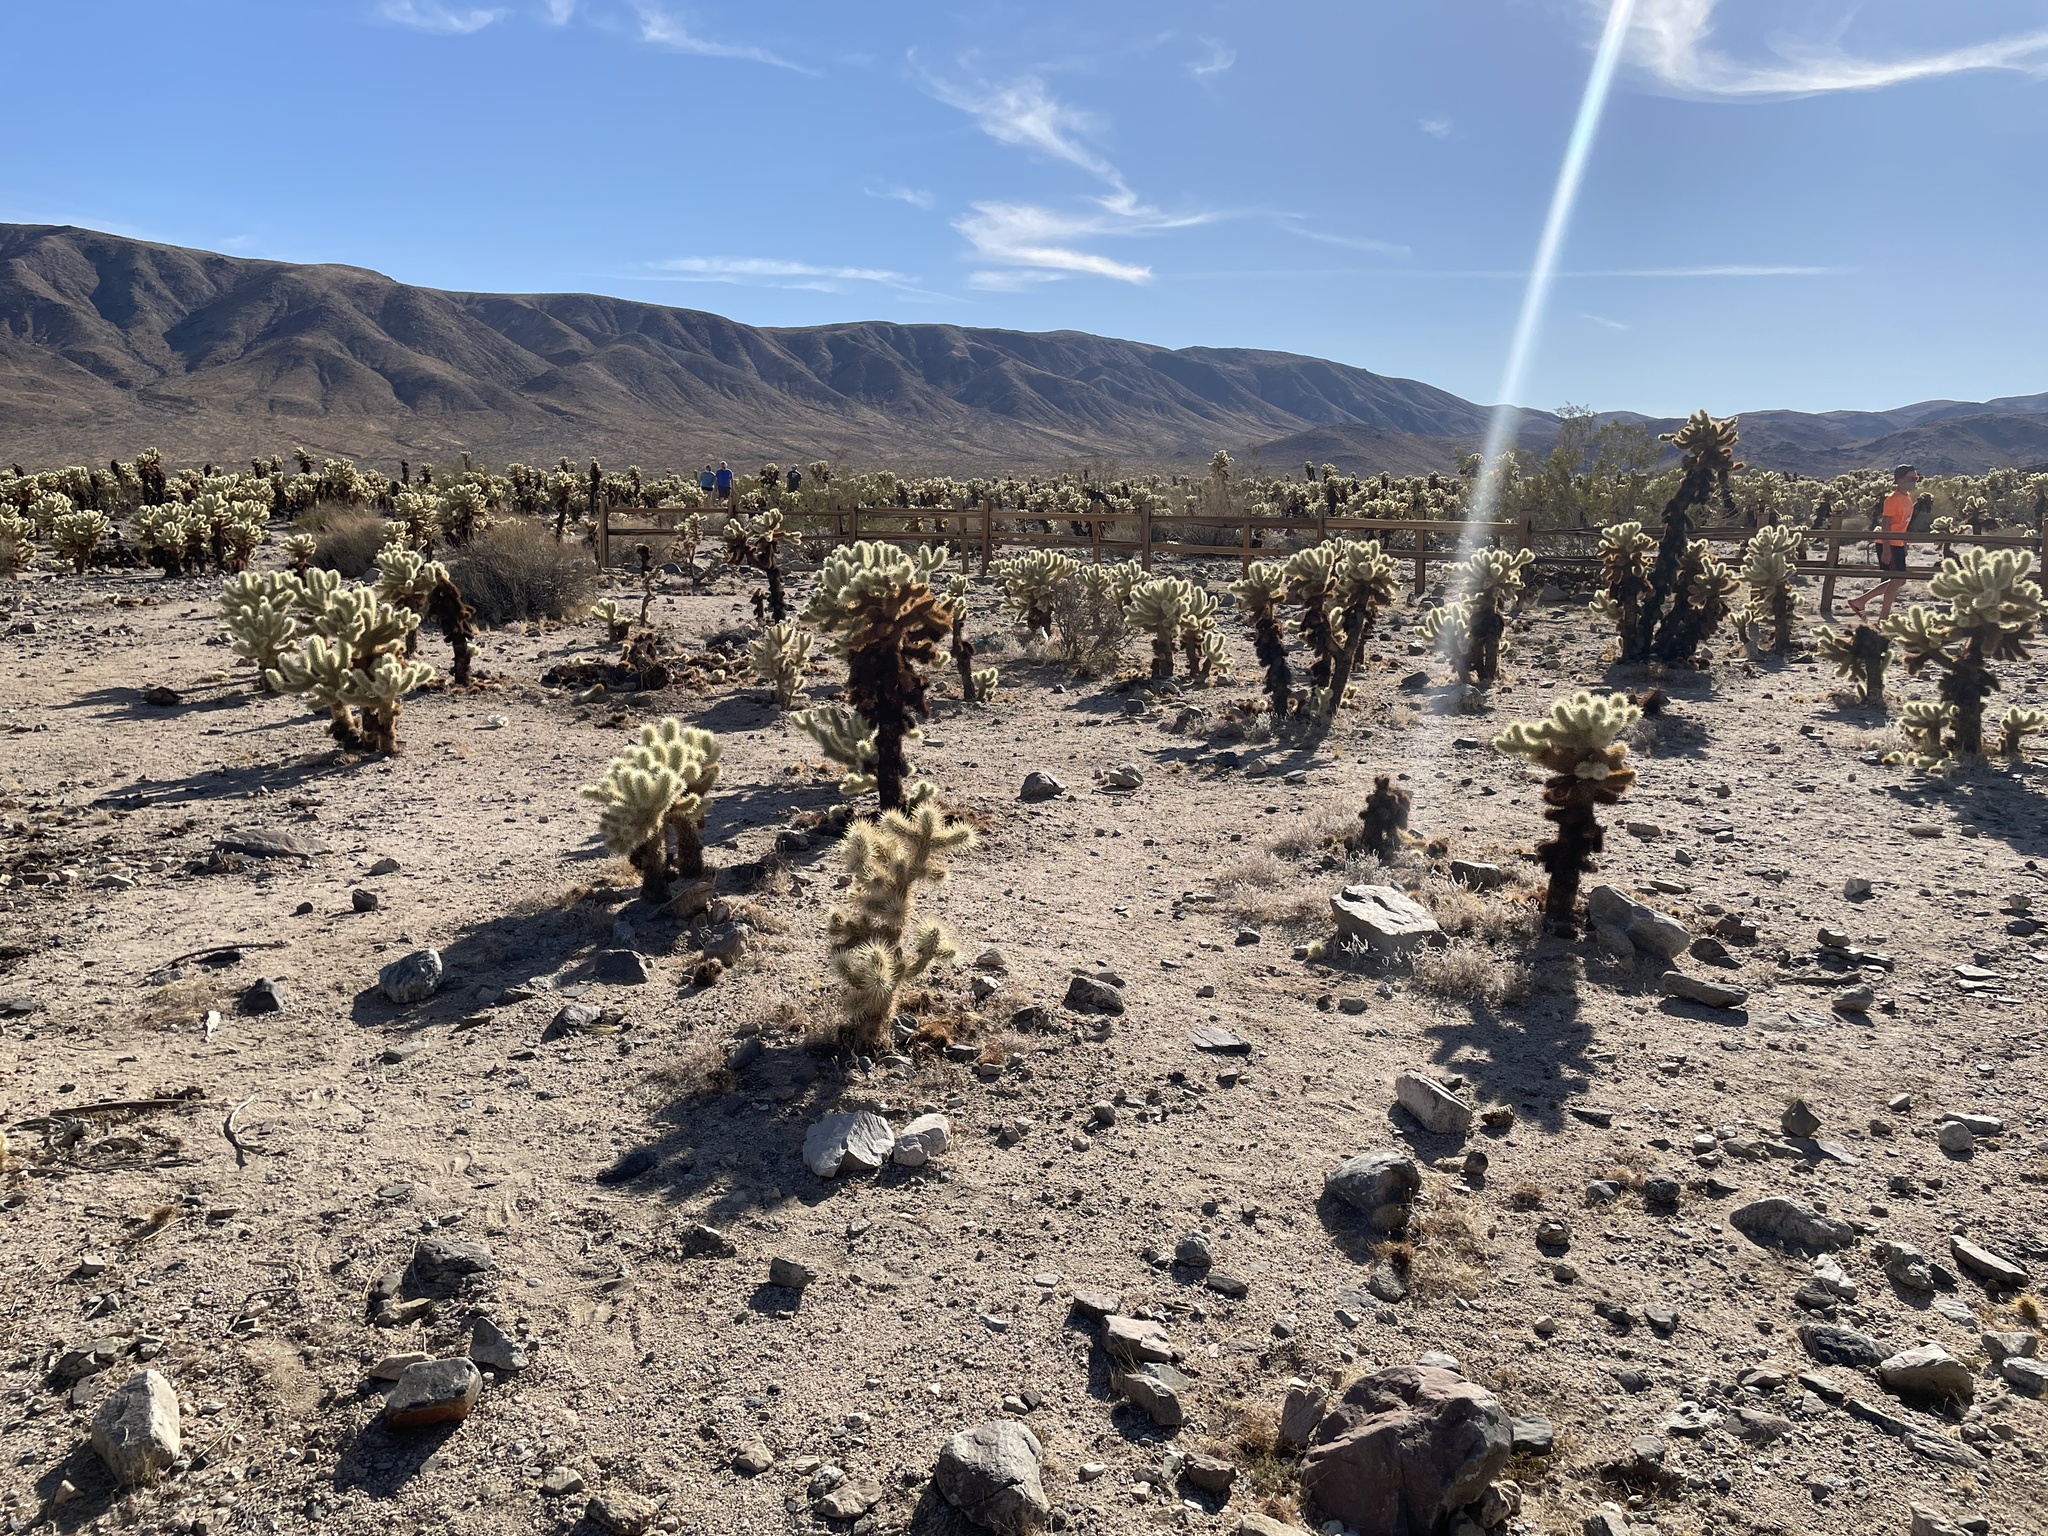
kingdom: Plantae
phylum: Tracheophyta
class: Magnoliopsida
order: Caryophyllales
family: Cactaceae
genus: Cylindropuntia
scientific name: Cylindropuntia fosbergii
